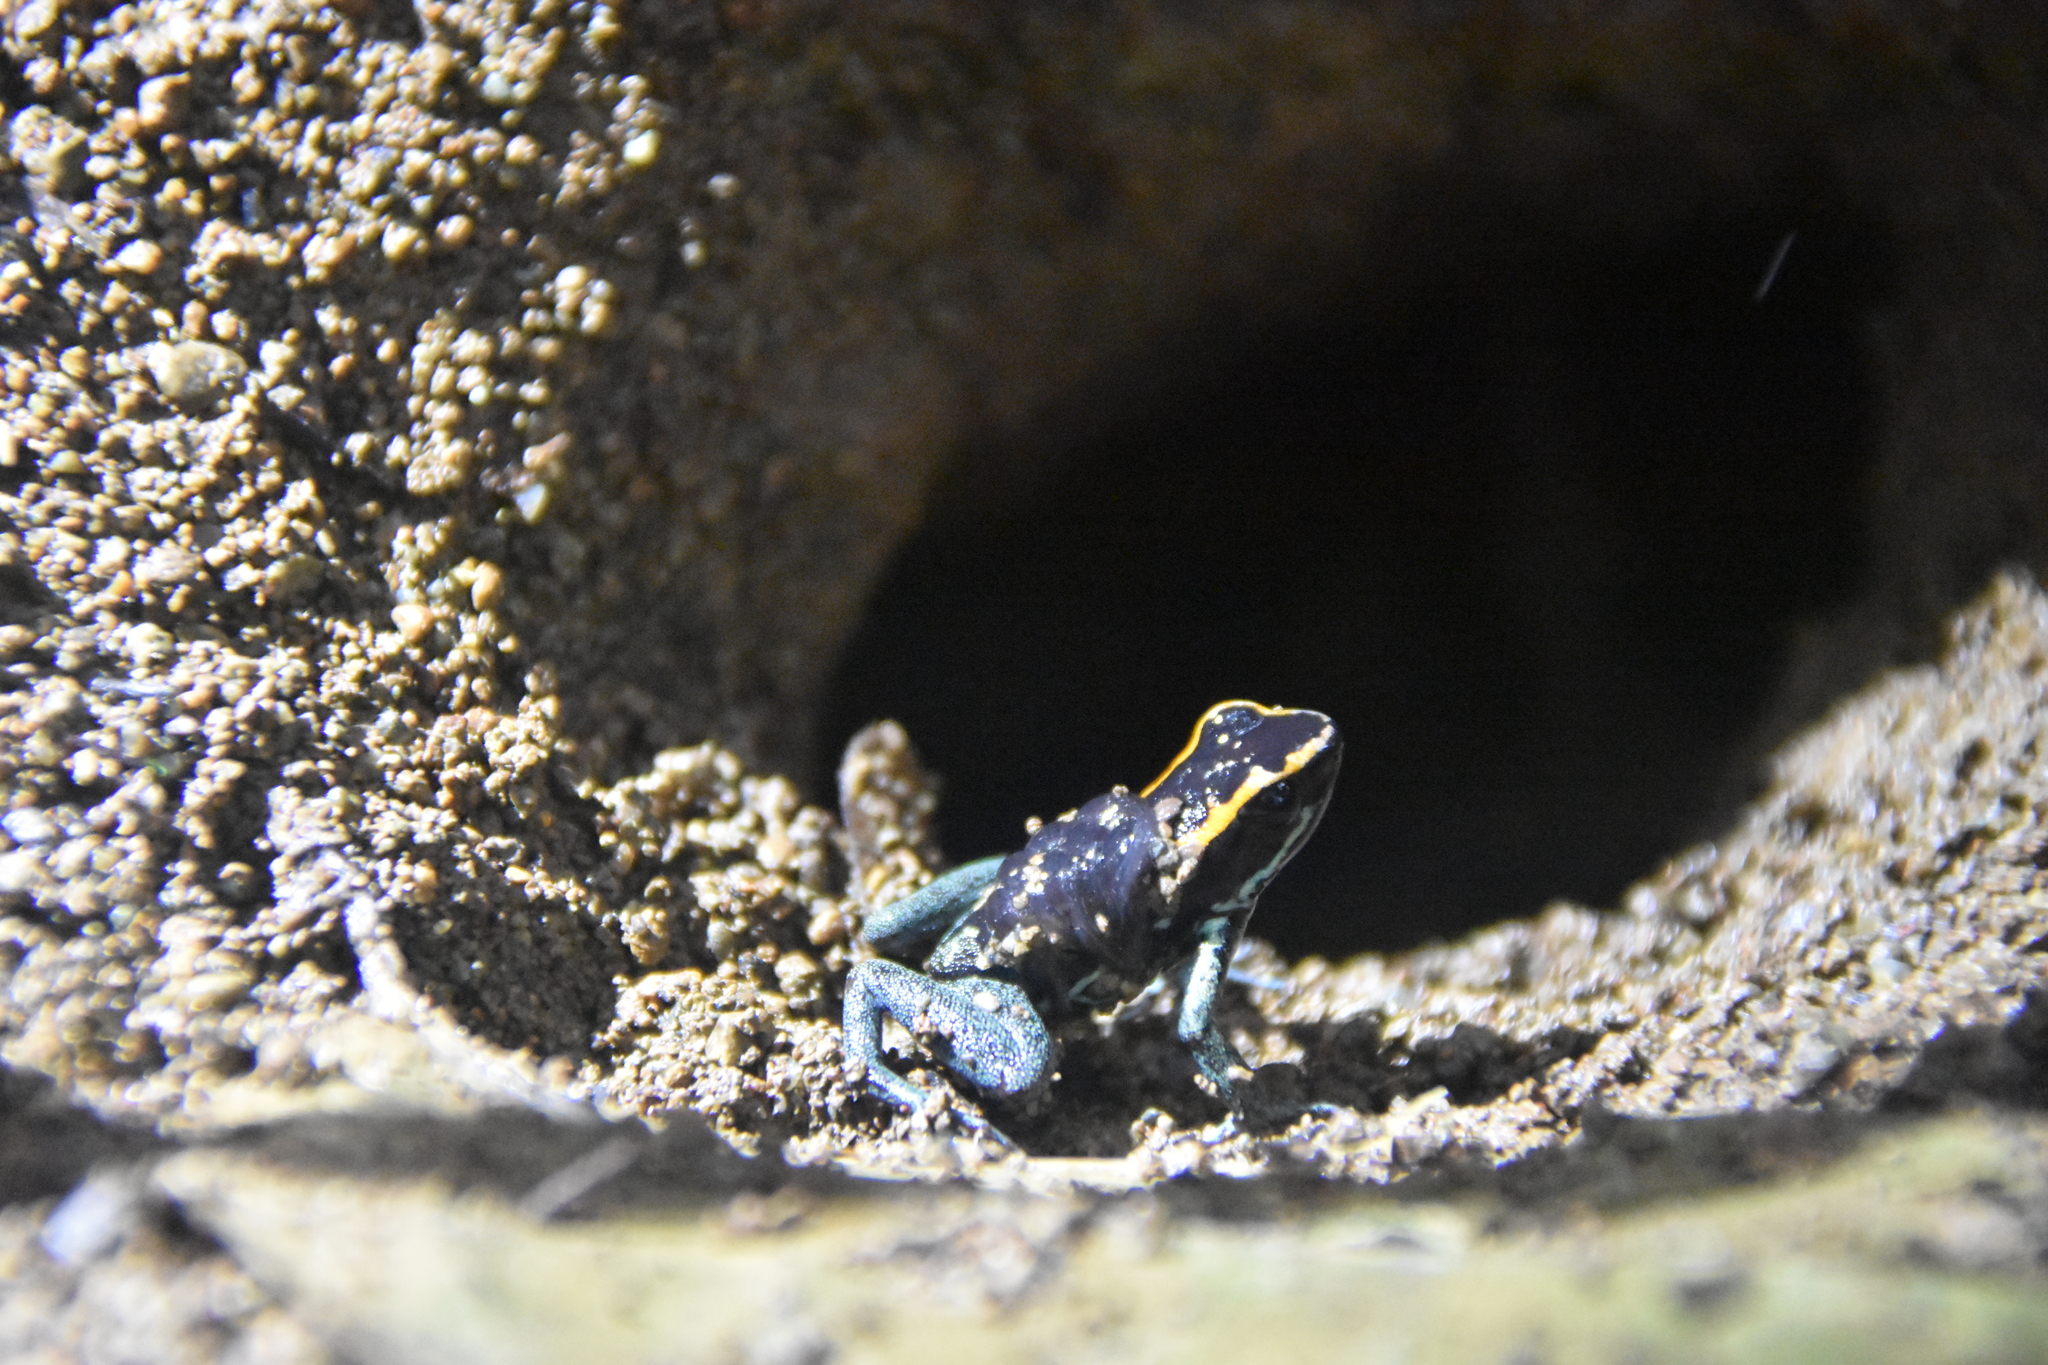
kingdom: Animalia
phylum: Chordata
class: Amphibia
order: Anura
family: Dendrobatidae
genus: Phyllobates
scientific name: Phyllobates vittatus
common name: Golfodulcean poison frog
